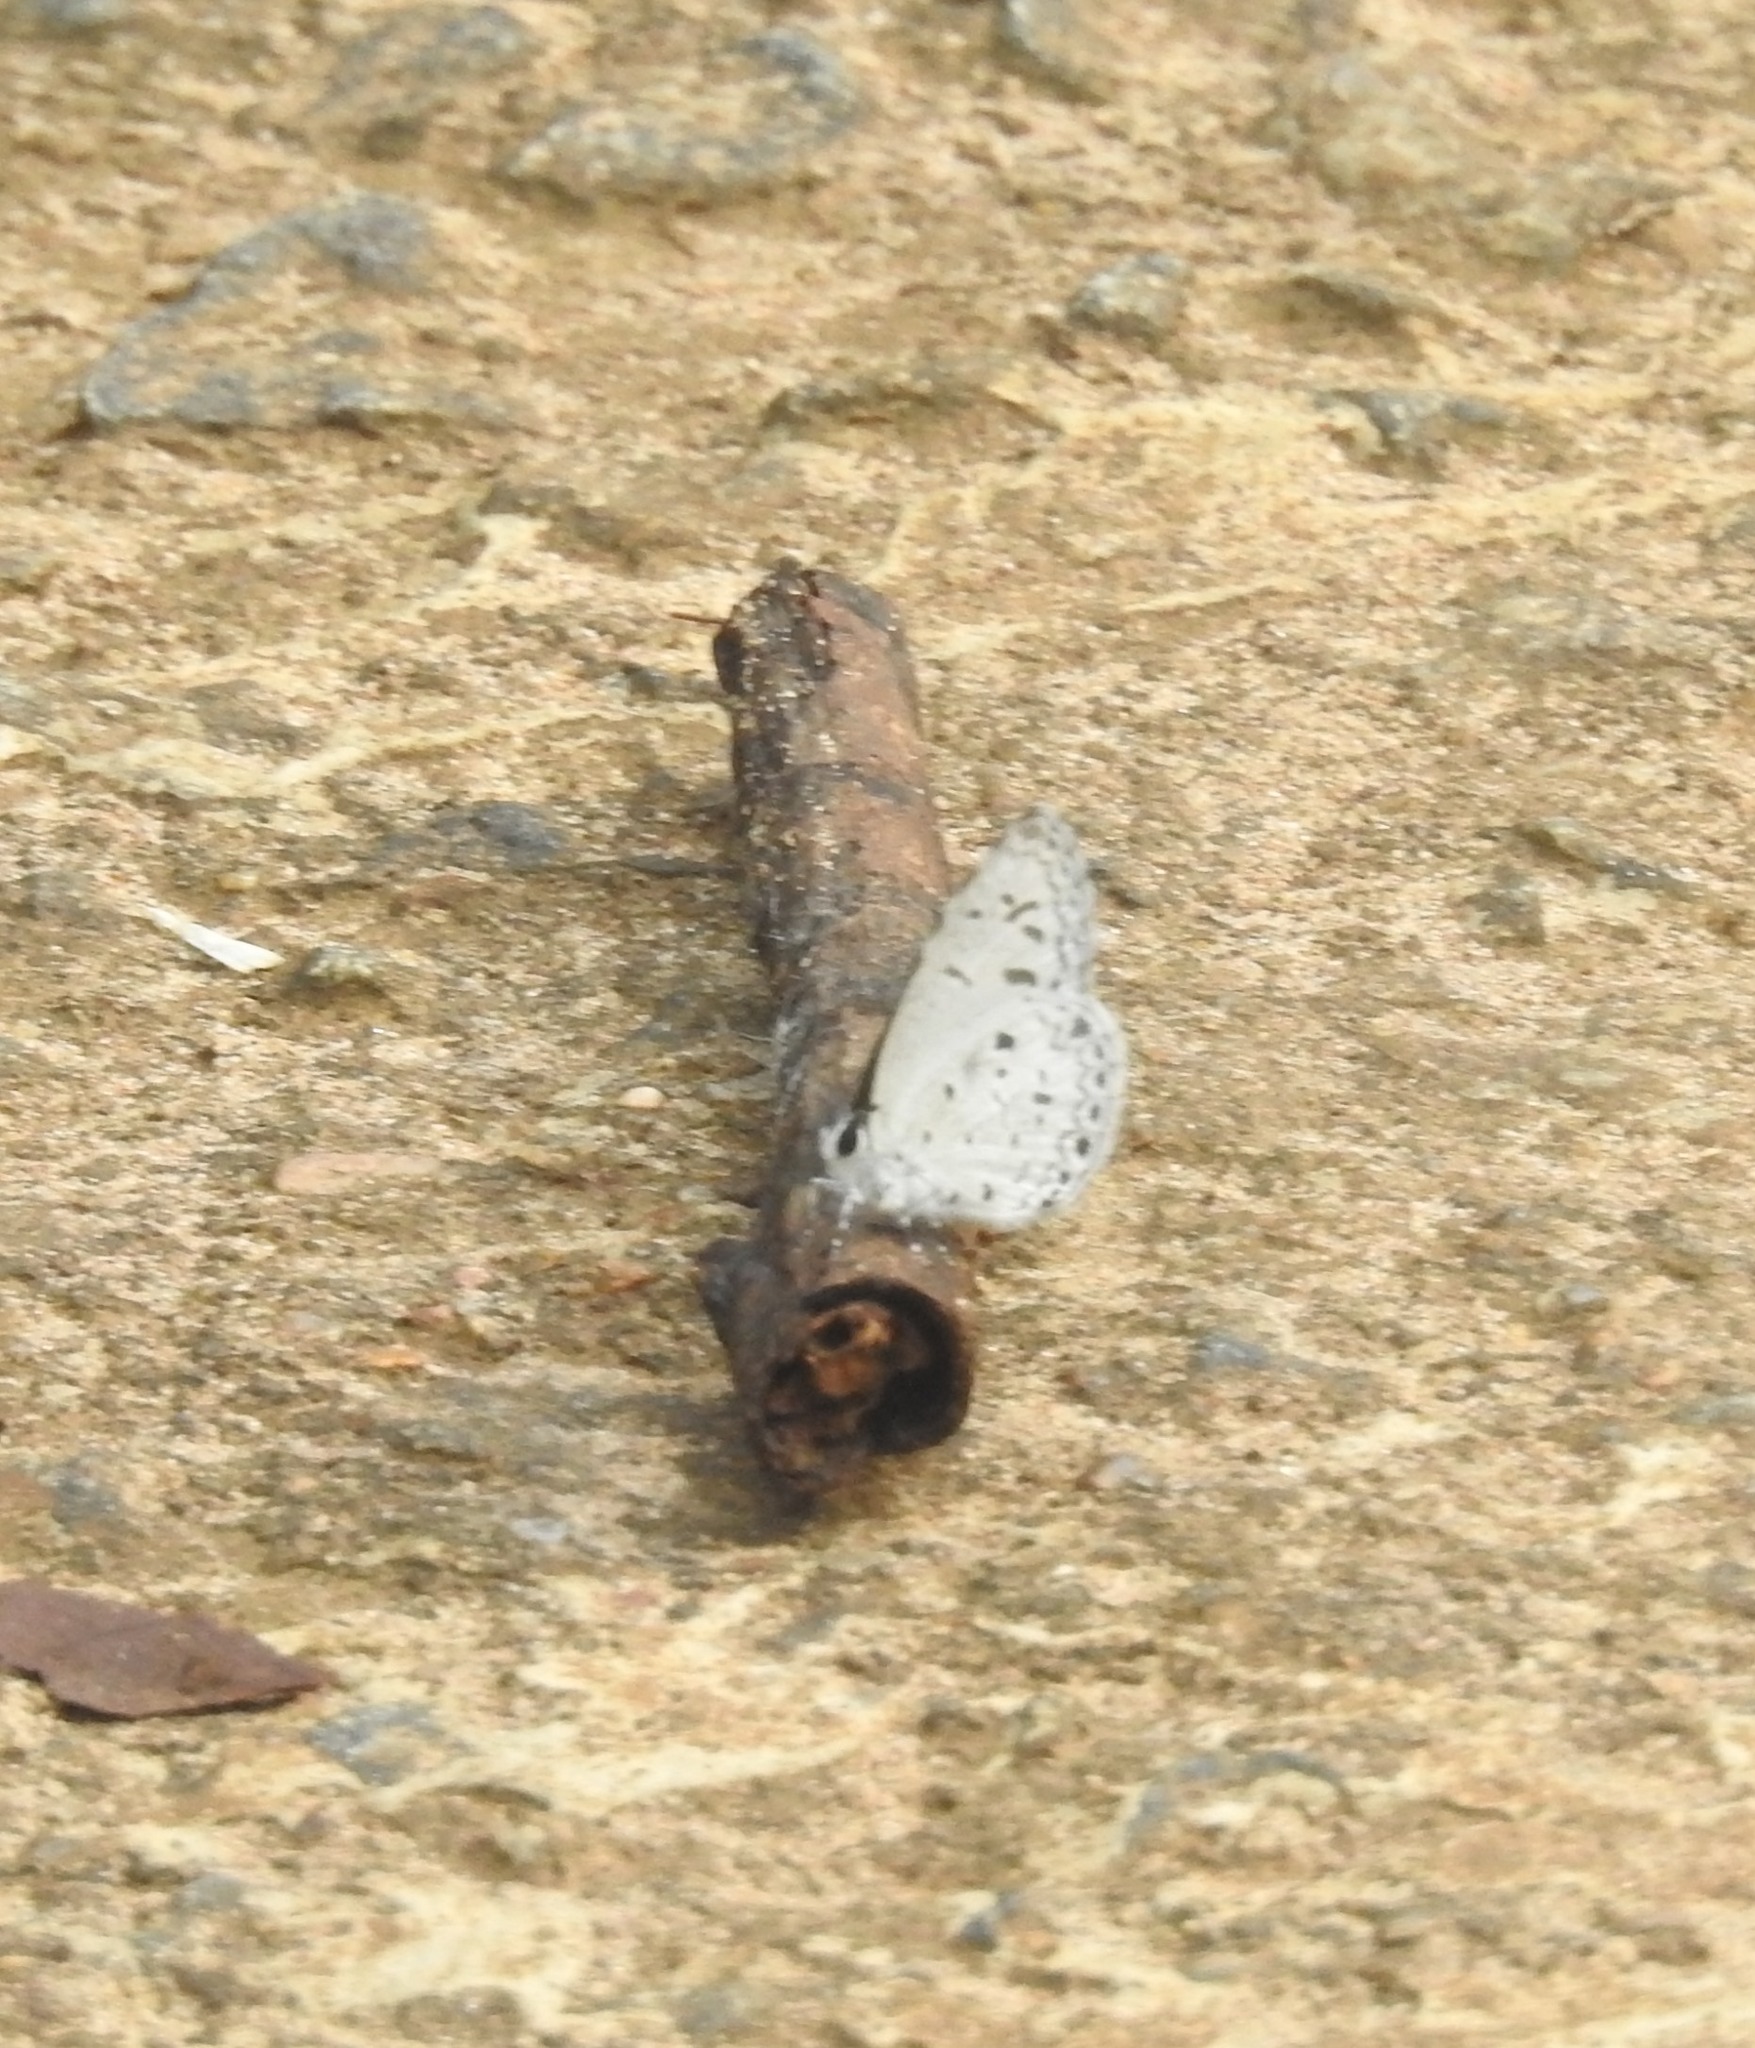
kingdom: Animalia
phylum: Arthropoda
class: Insecta
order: Lepidoptera
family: Lycaenidae
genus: Acytolepis
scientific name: Acytolepis puspa
